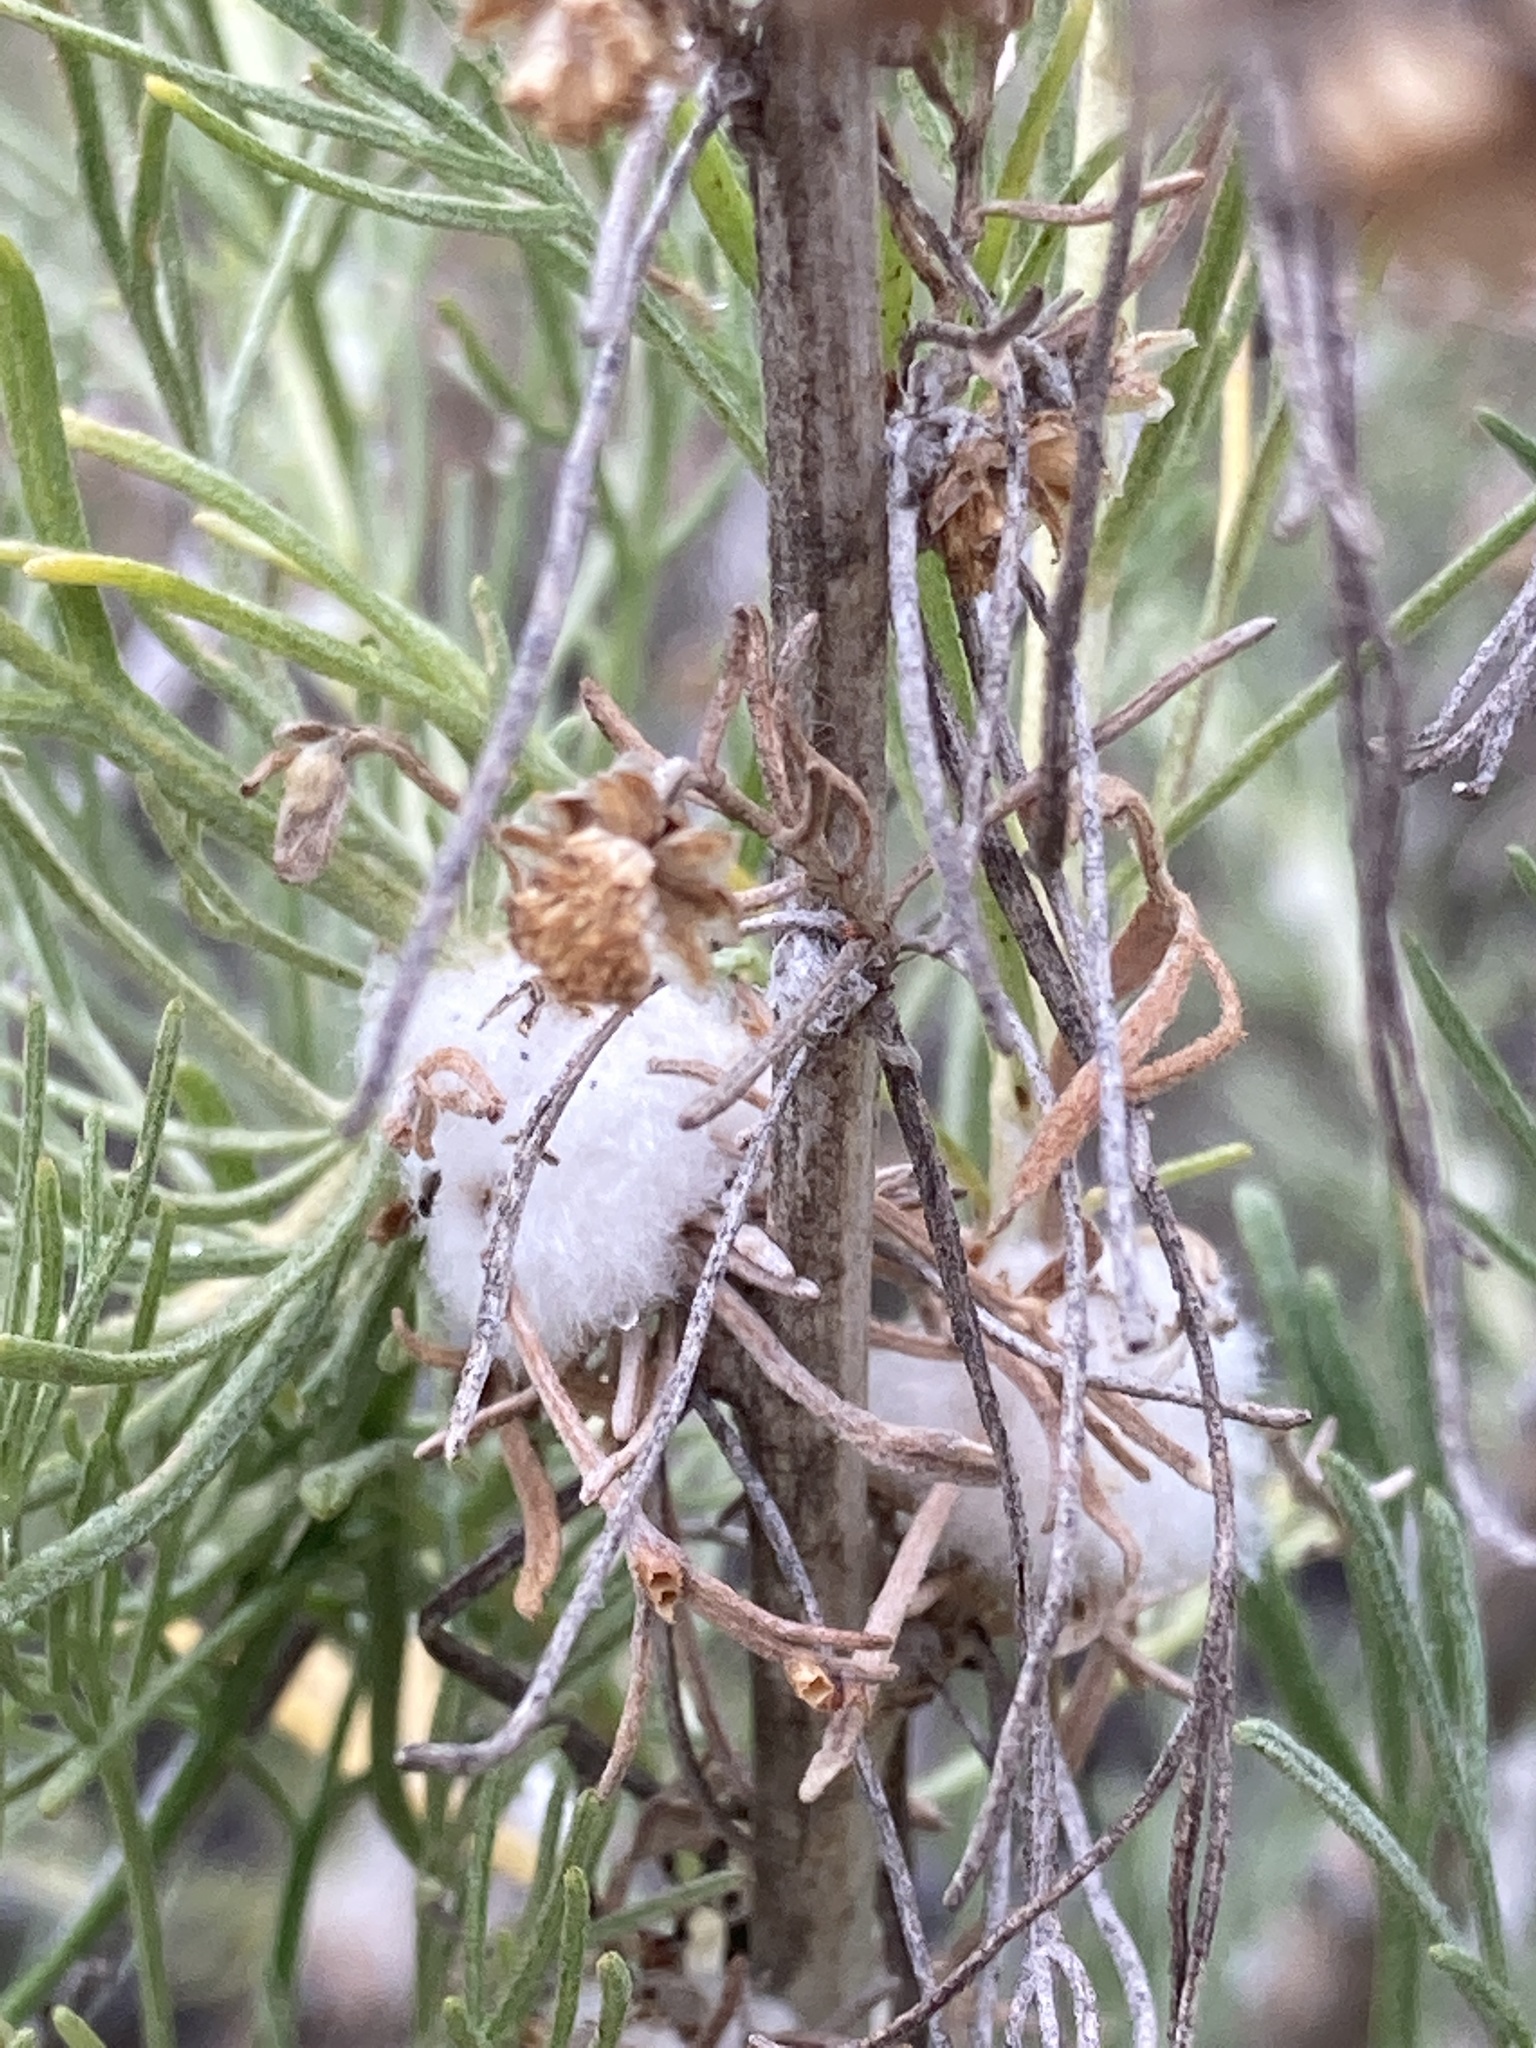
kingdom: Animalia
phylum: Arthropoda
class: Insecta
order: Diptera
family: Cecidomyiidae
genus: Rhopalomyia
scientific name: Rhopalomyia floccosa
